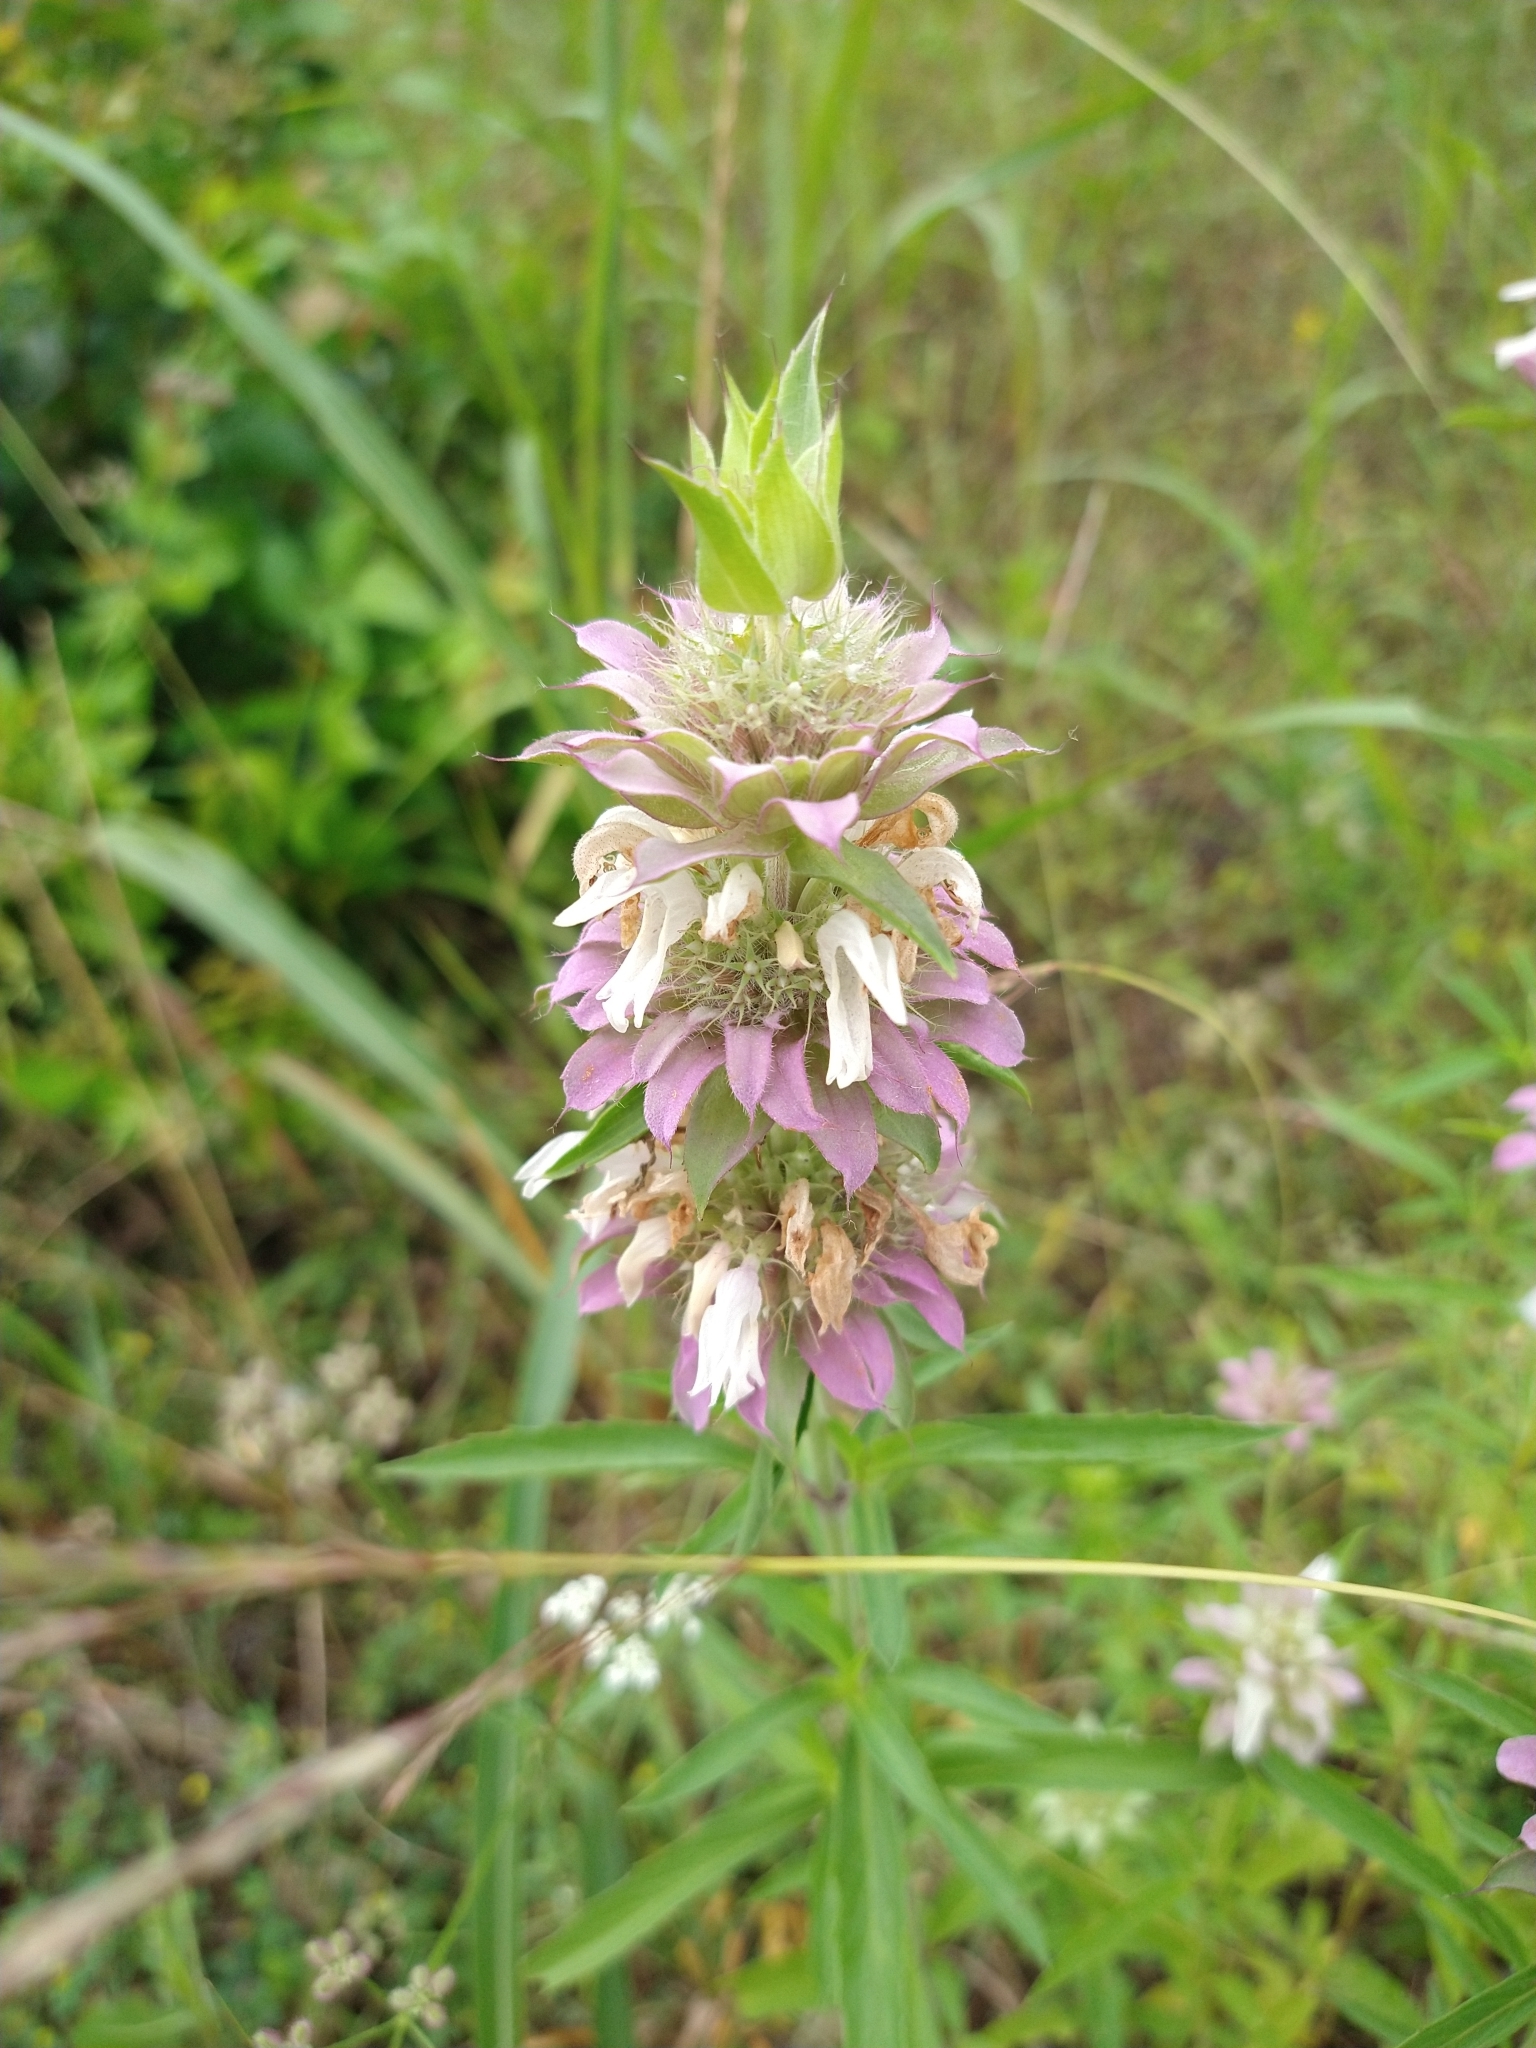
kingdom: Plantae
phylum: Tracheophyta
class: Magnoliopsida
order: Lamiales
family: Lamiaceae
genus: Monarda
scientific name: Monarda citriodora
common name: Lemon beebalm
